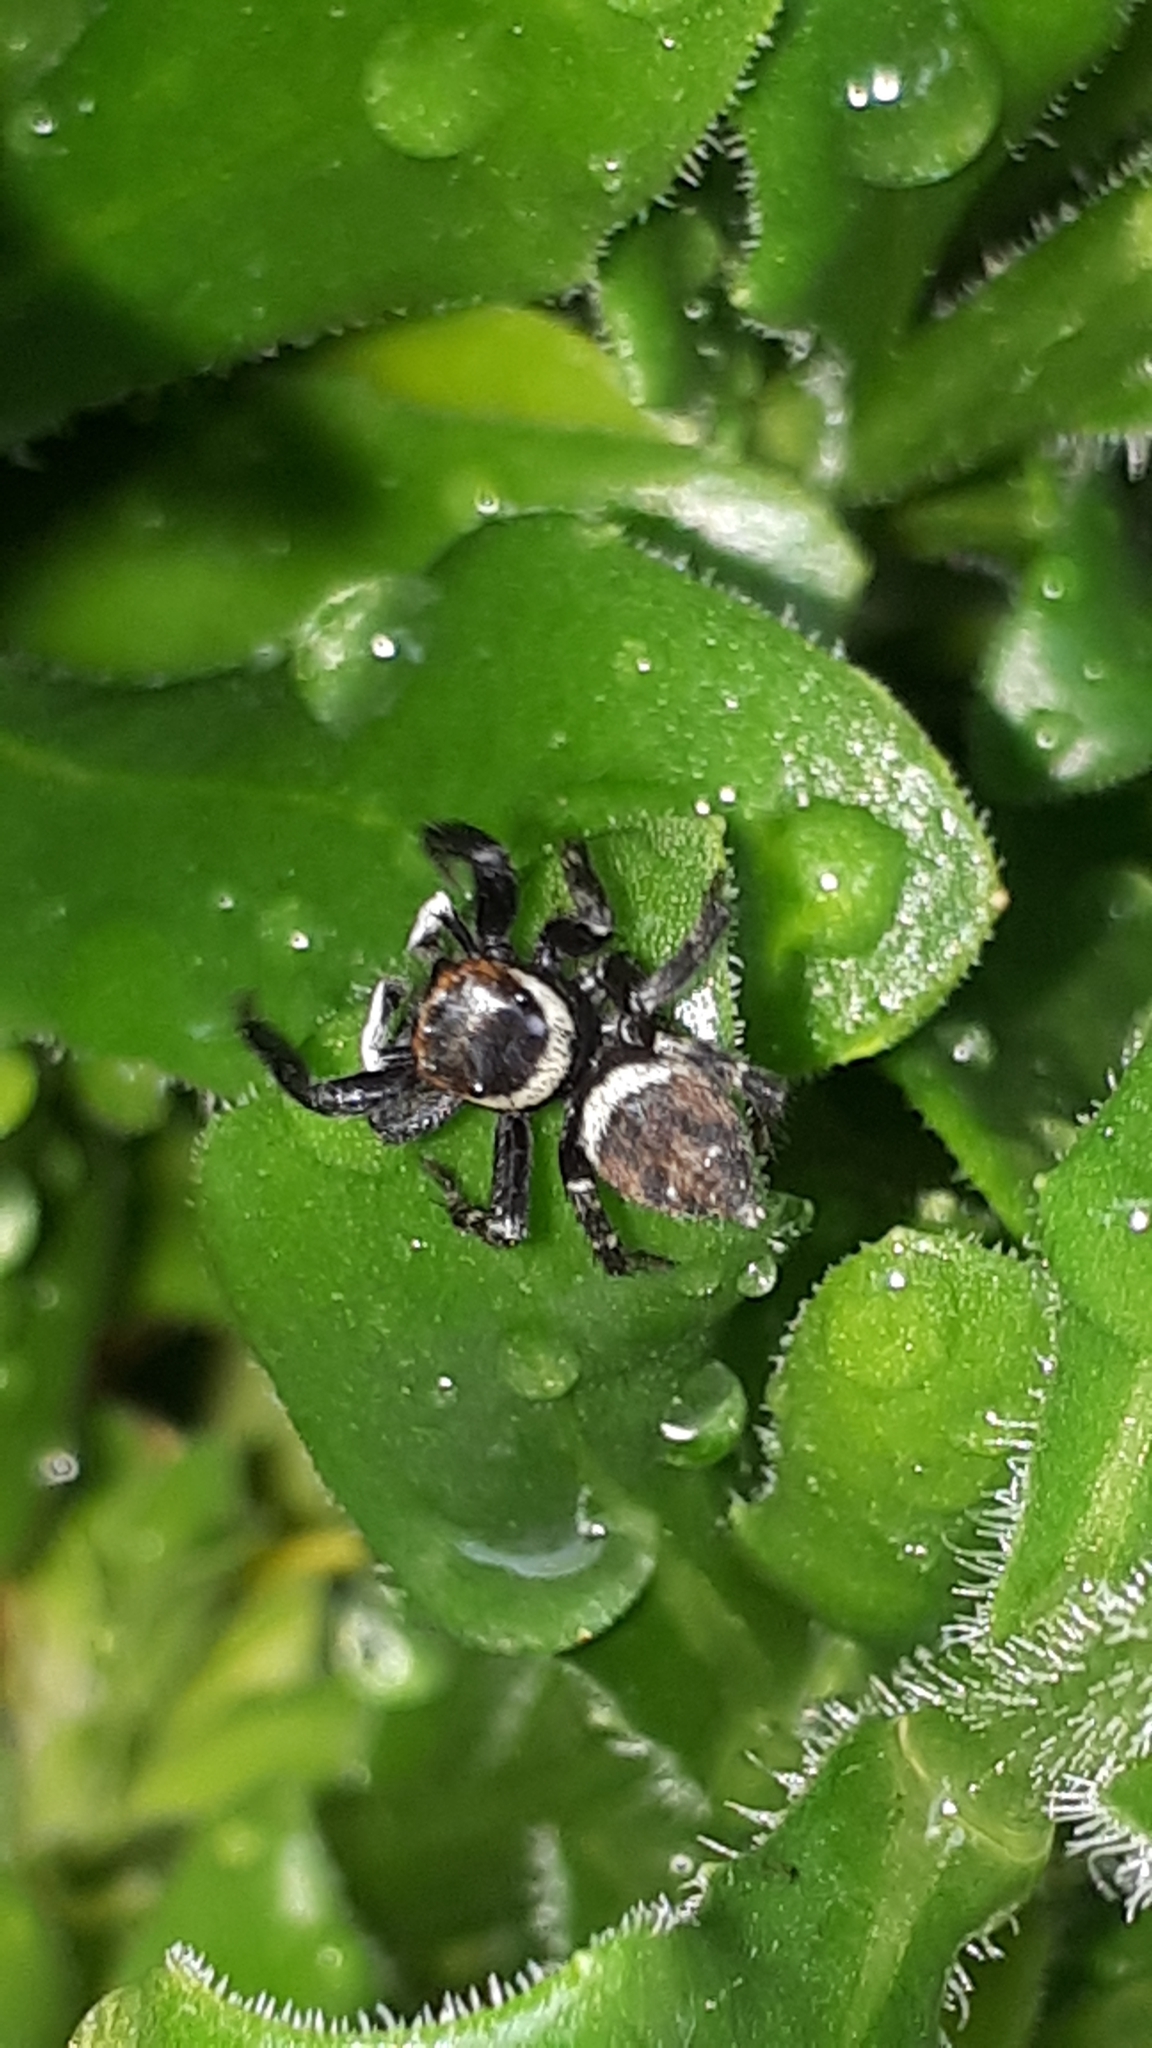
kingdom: Animalia
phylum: Arthropoda
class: Arachnida
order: Araneae
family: Salticidae
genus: Hasarius
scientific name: Hasarius adansoni
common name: Jumping spider
